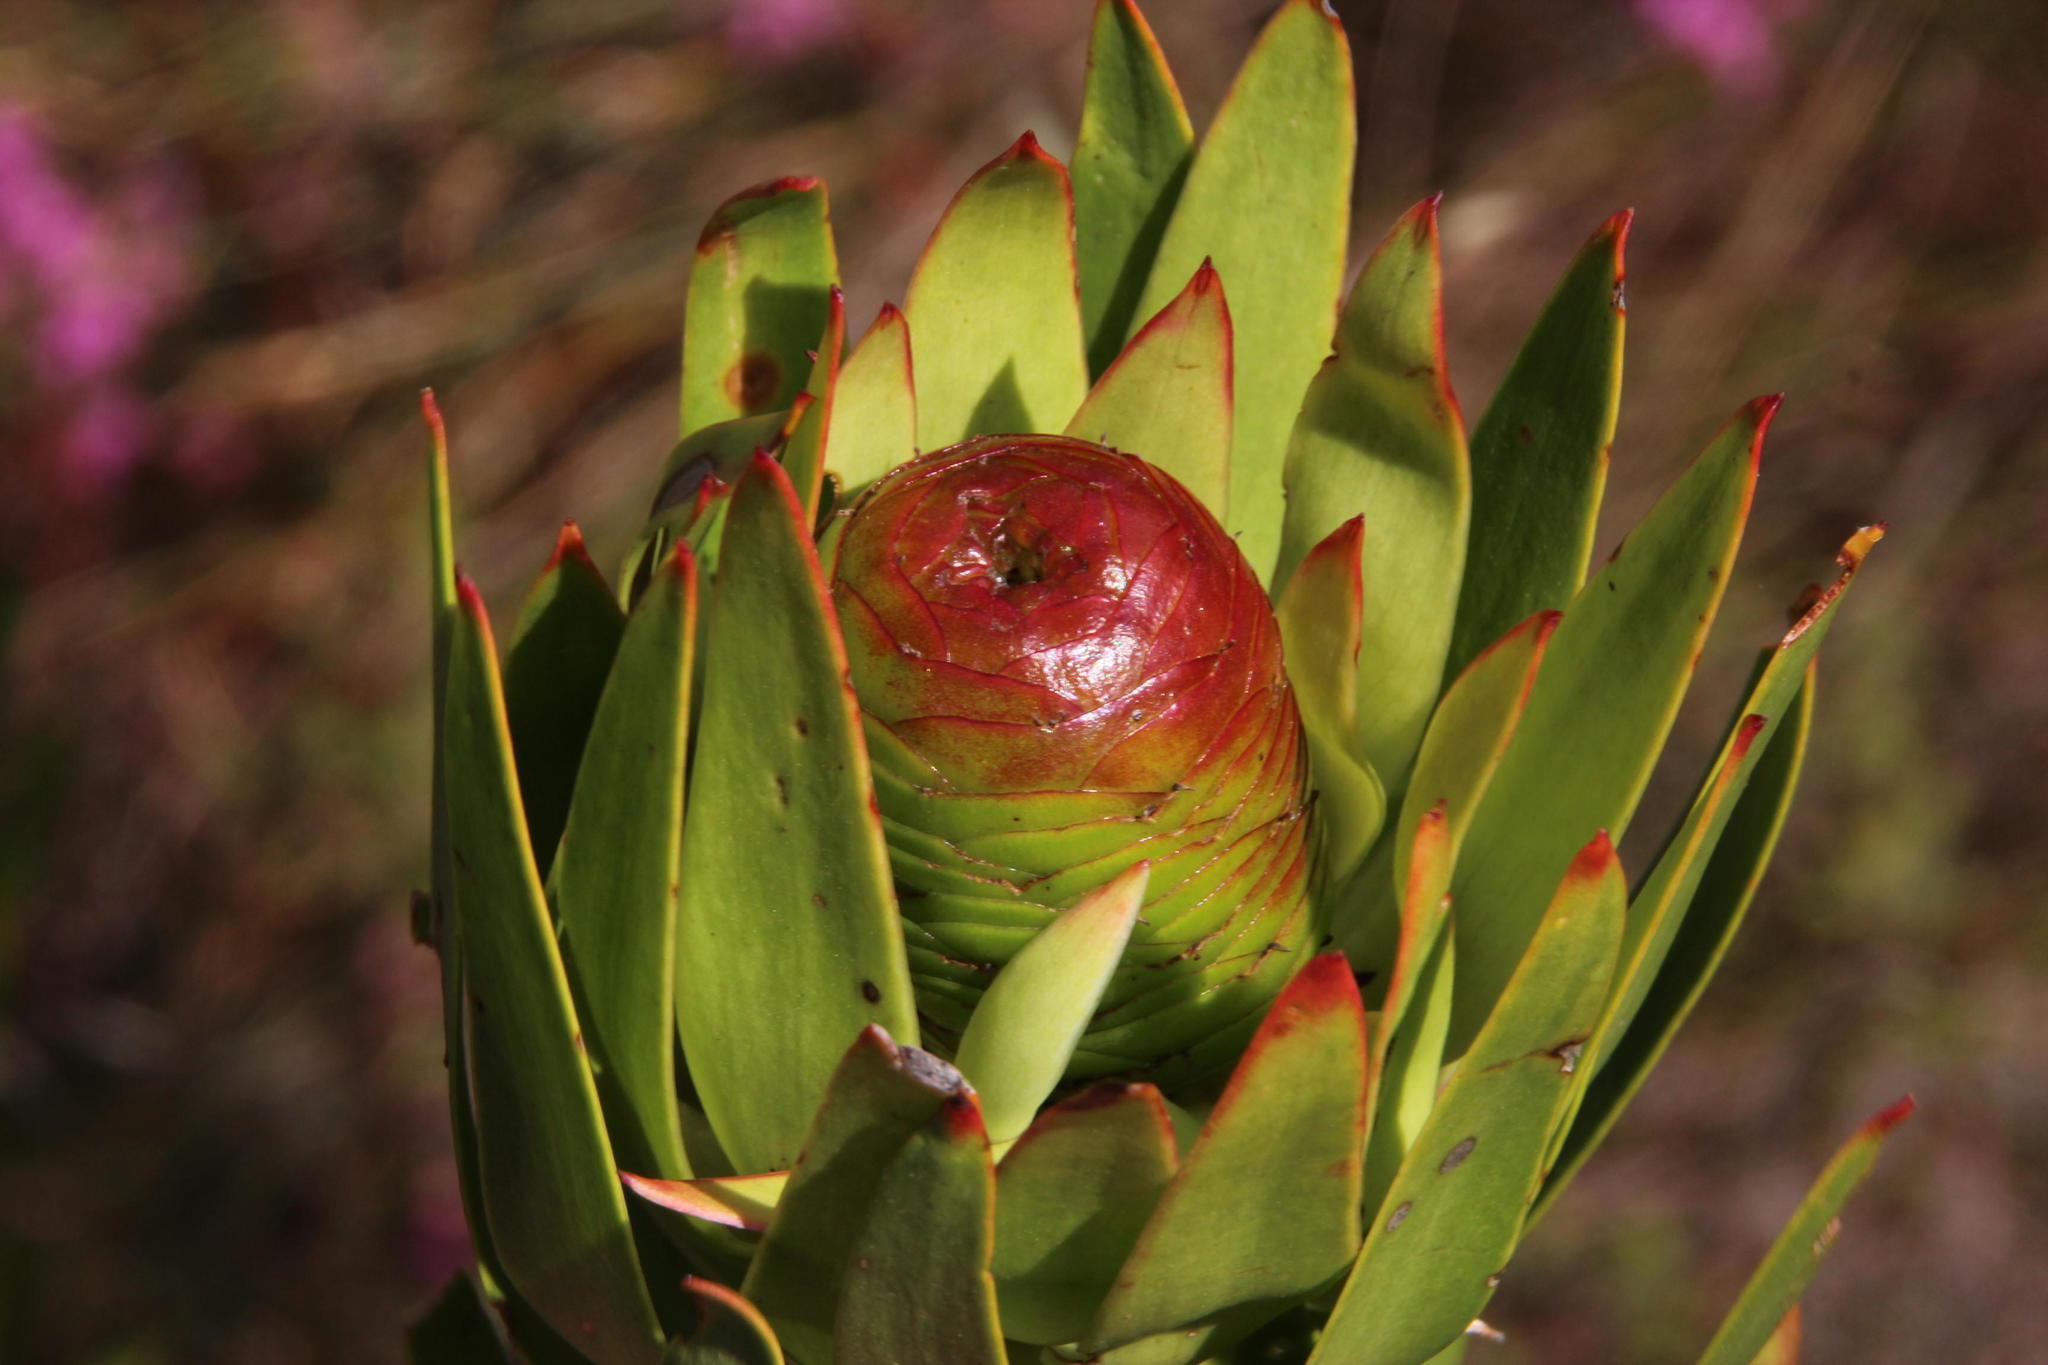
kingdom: Plantae
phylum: Tracheophyta
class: Magnoliopsida
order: Proteales
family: Proteaceae
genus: Leucadendron
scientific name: Leucadendron spissifolium
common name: Spear-leaf conebush
